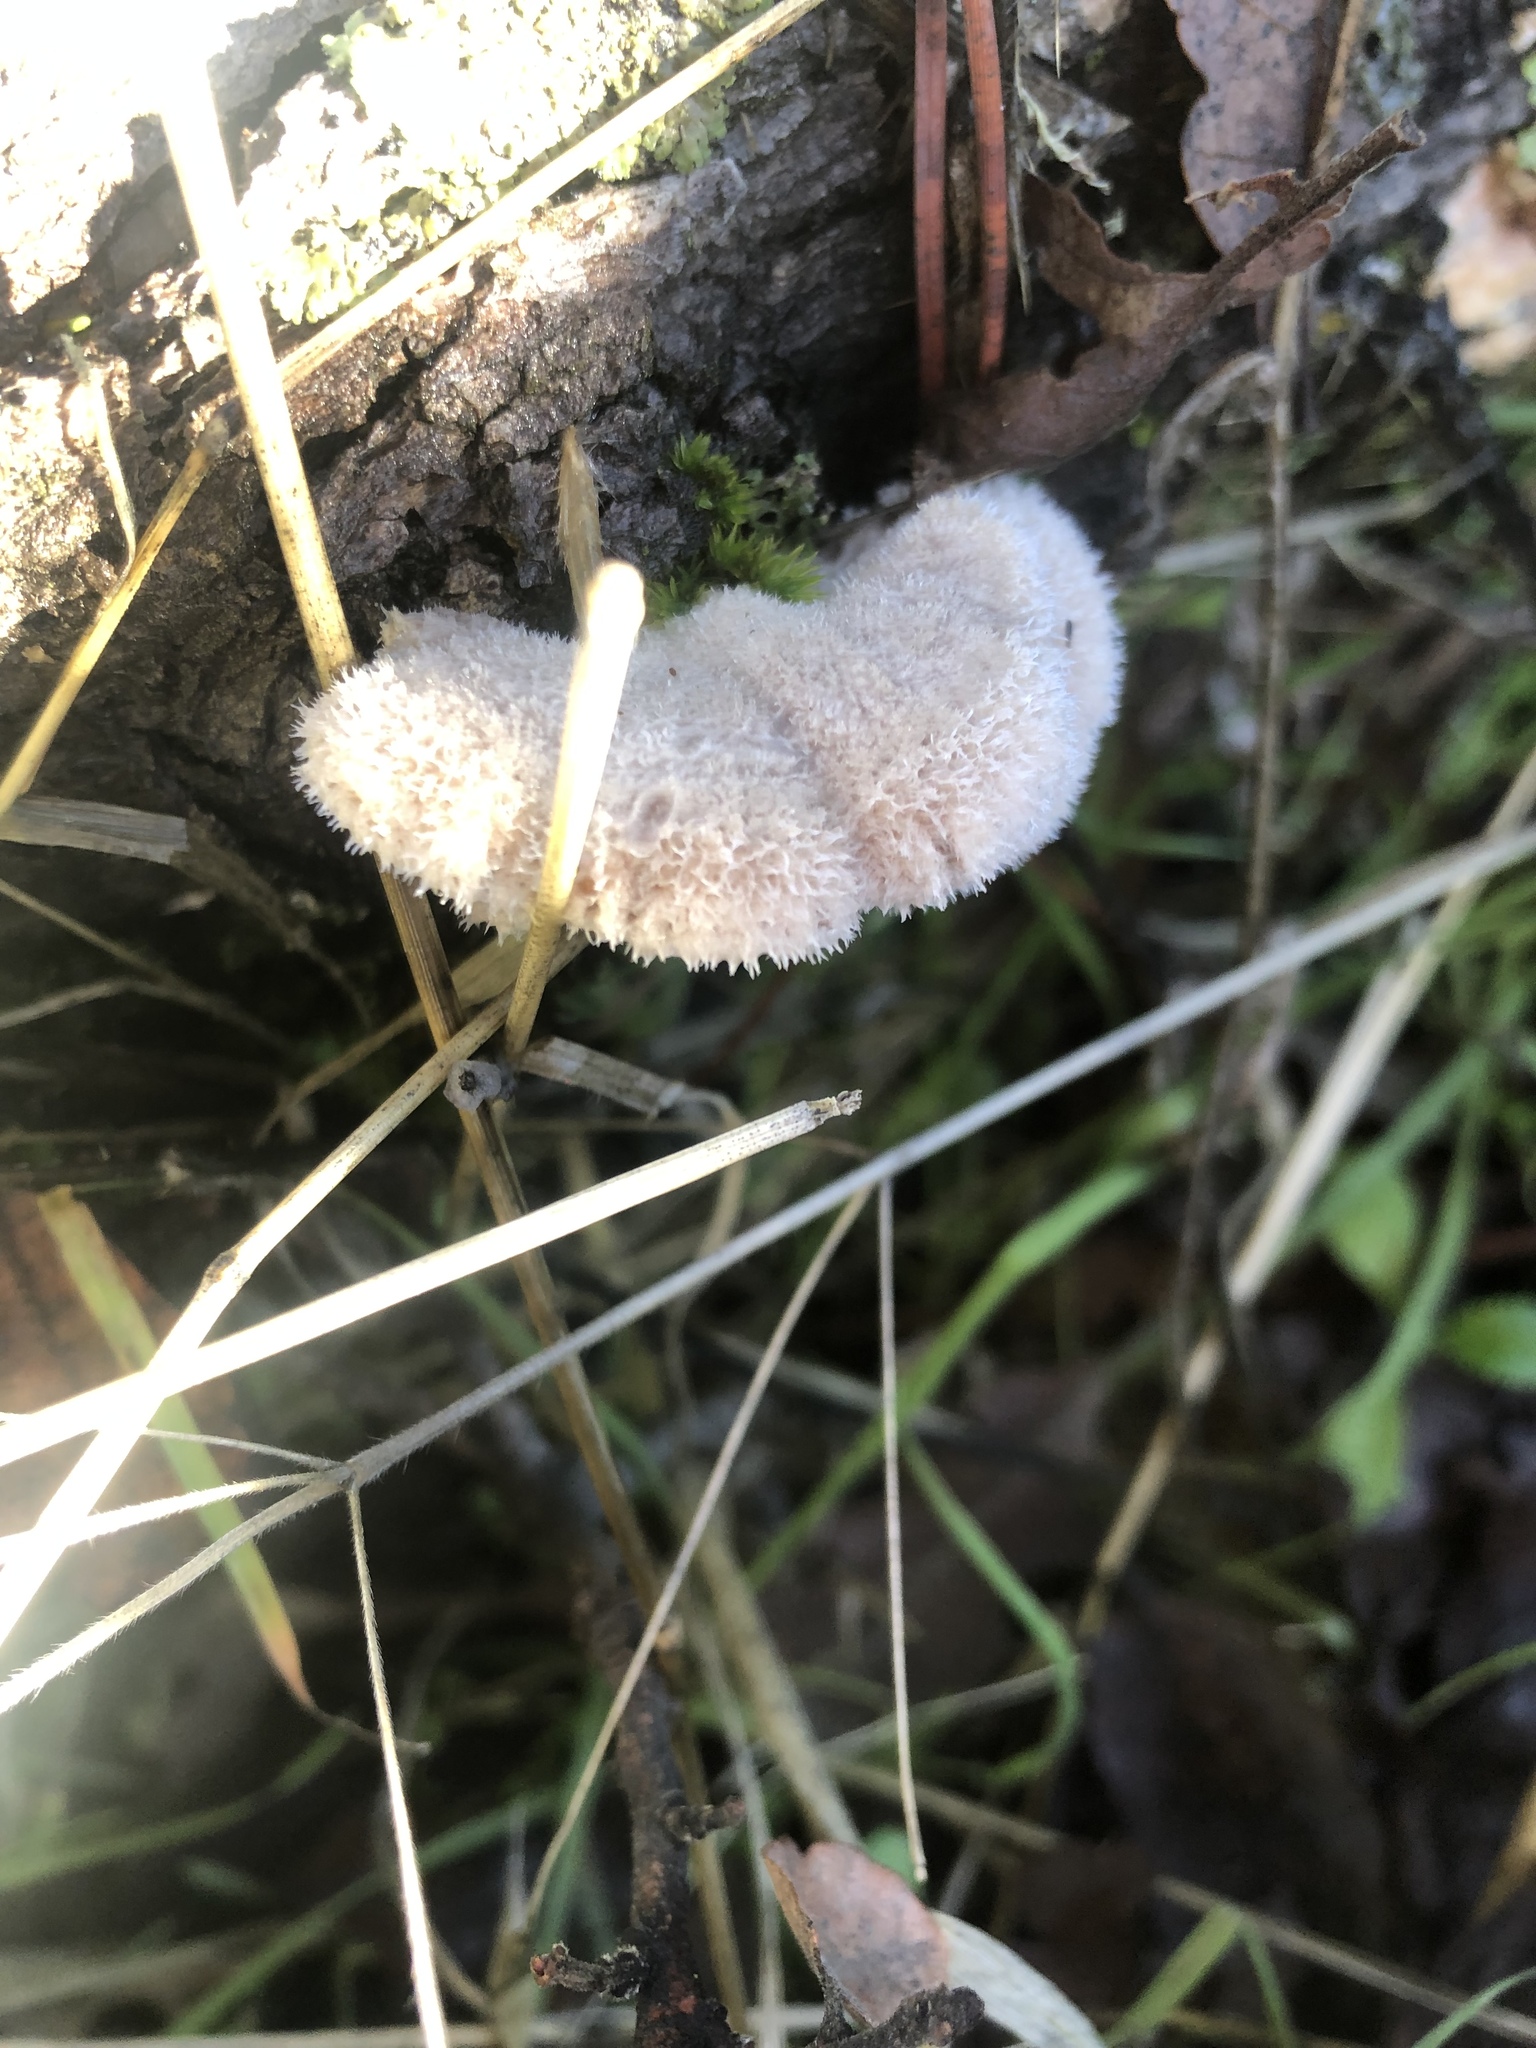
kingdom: Fungi
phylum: Basidiomycota
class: Agaricomycetes
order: Agaricales
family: Schizophyllaceae
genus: Schizophyllum
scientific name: Schizophyllum commune
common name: Common porecrust
